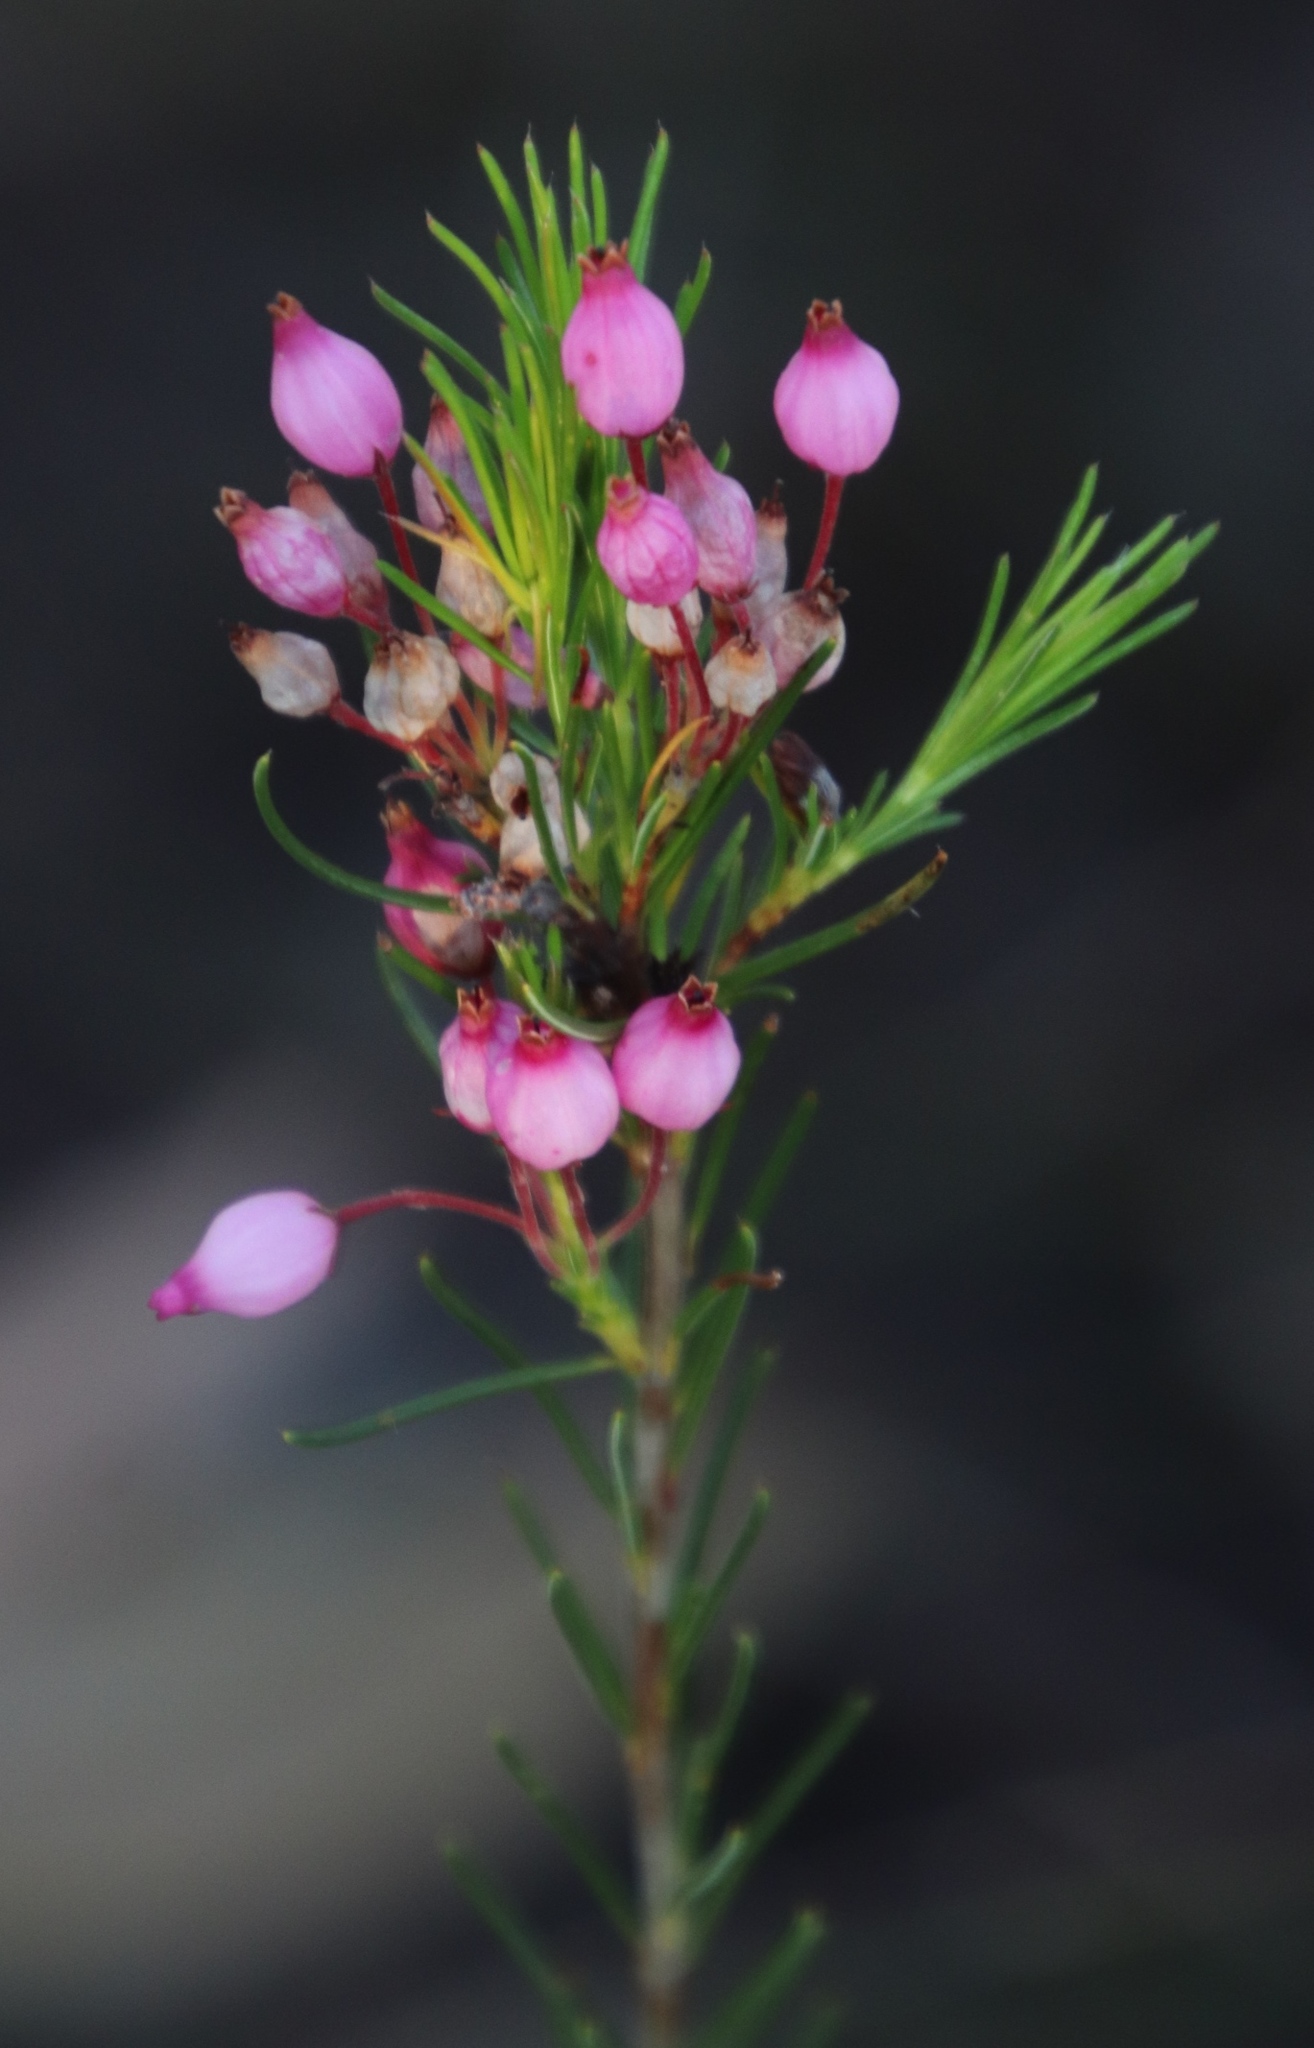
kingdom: Plantae
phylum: Tracheophyta
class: Magnoliopsida
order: Ericales
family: Ericaceae
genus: Erica
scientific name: Erica inflata
